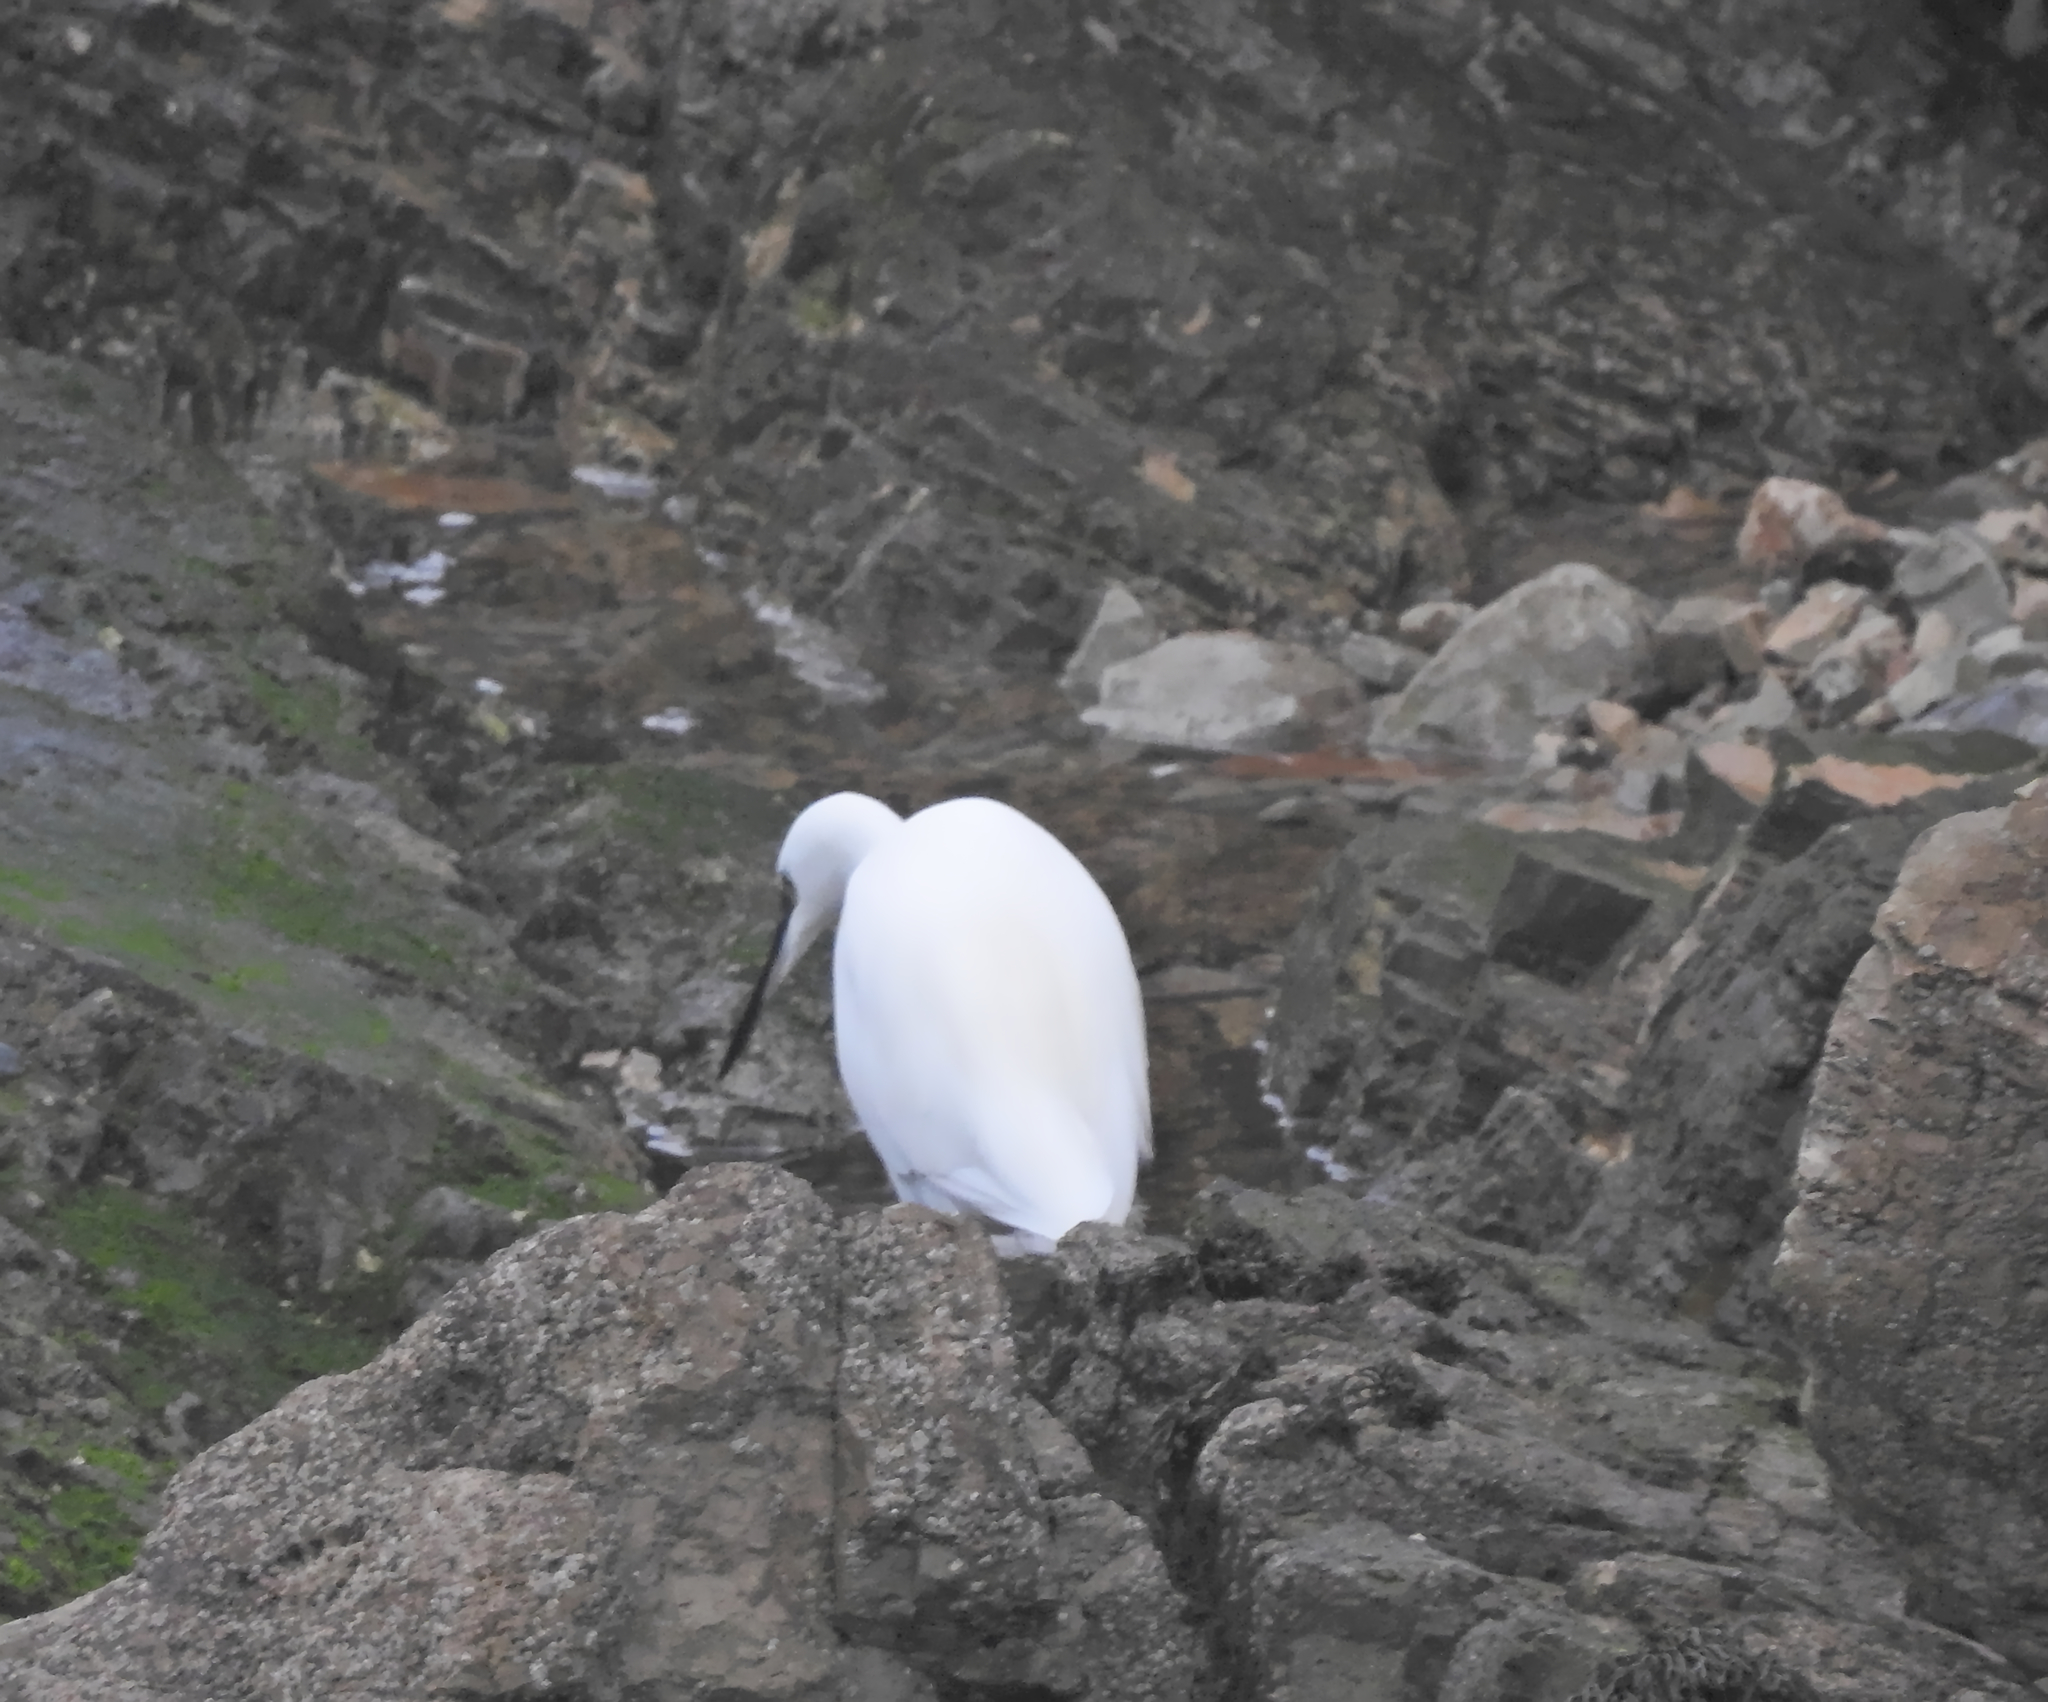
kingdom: Animalia
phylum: Chordata
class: Aves
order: Pelecaniformes
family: Ardeidae
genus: Egretta
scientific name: Egretta garzetta
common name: Little egret
